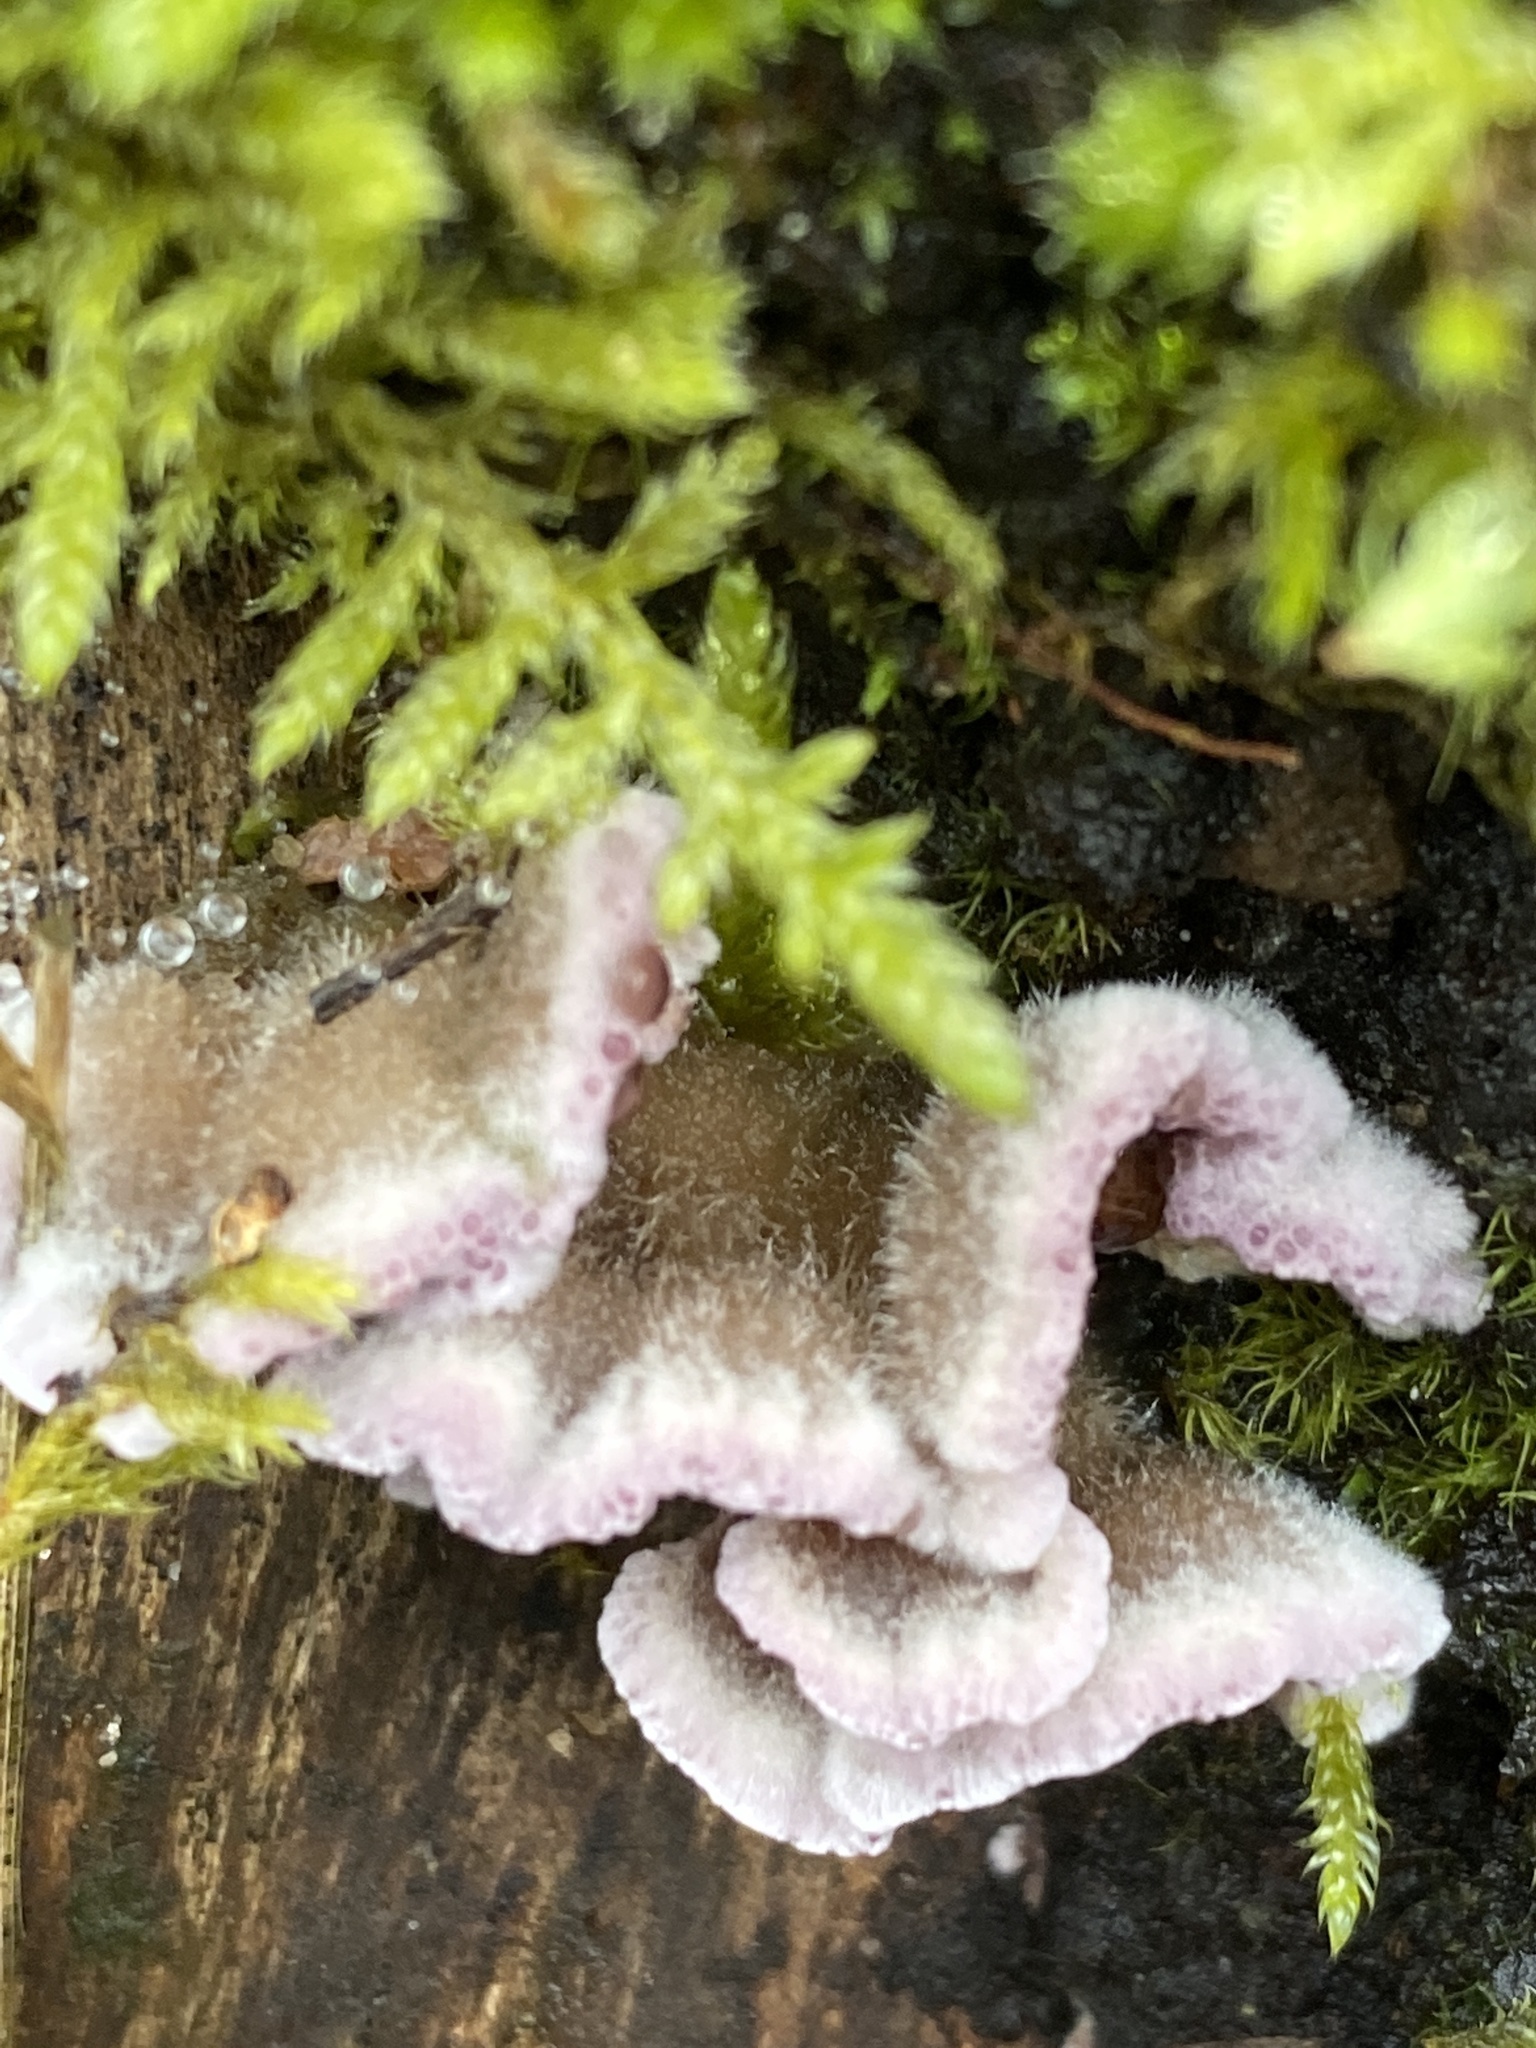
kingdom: Fungi
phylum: Basidiomycota
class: Agaricomycetes
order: Agaricales
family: Cyphellaceae
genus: Chondrostereum
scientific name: Chondrostereum purpureum
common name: Silver leaf disease
